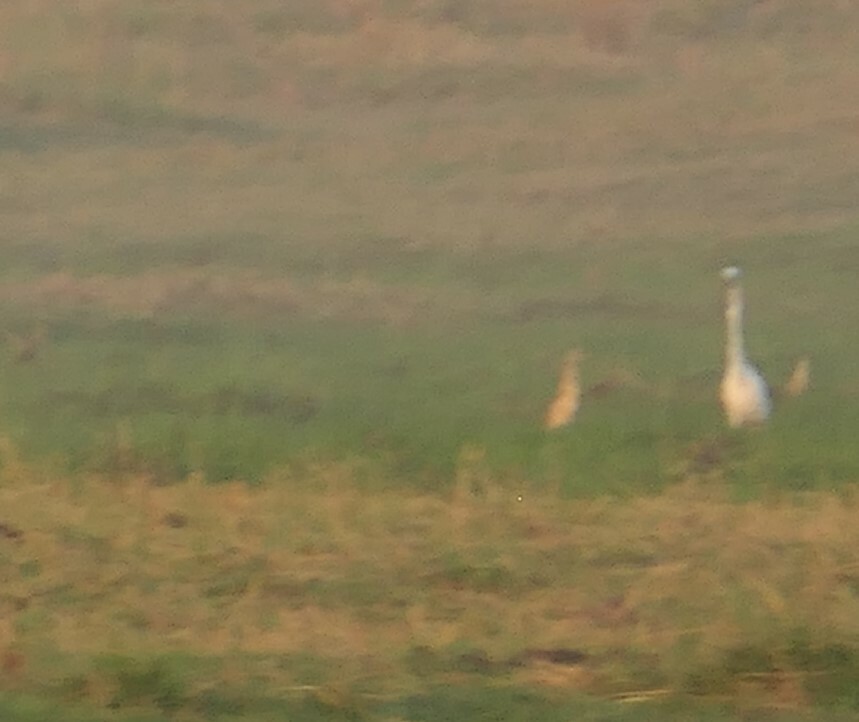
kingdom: Animalia
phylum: Chordata
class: Aves
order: Pelecaniformes
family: Ardeidae
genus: Ardeola
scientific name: Ardeola ralloides
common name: Squacco heron
